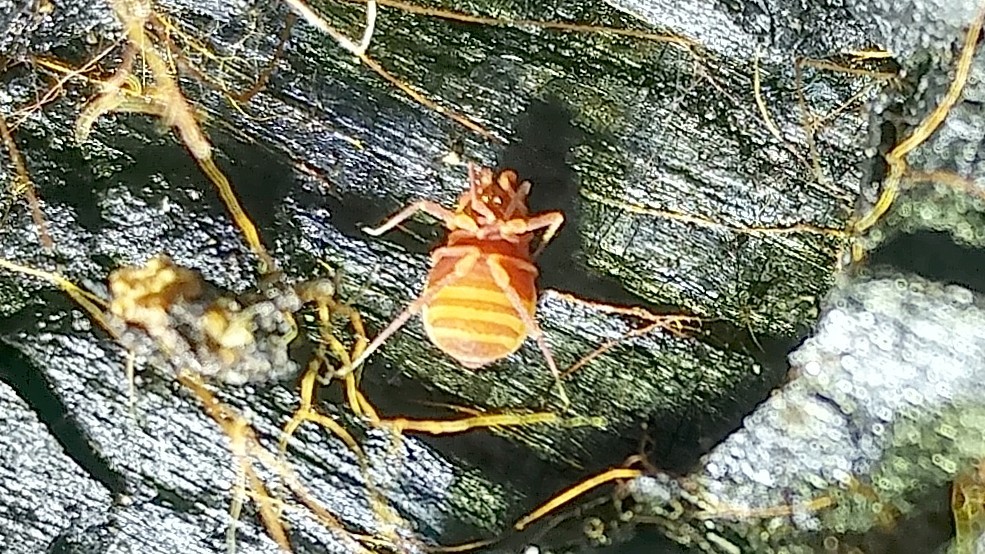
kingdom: Animalia
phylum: Arthropoda
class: Arachnida
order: Opiliones
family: Phalangodidae
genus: Sitalcina
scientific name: Sitalcina sura
